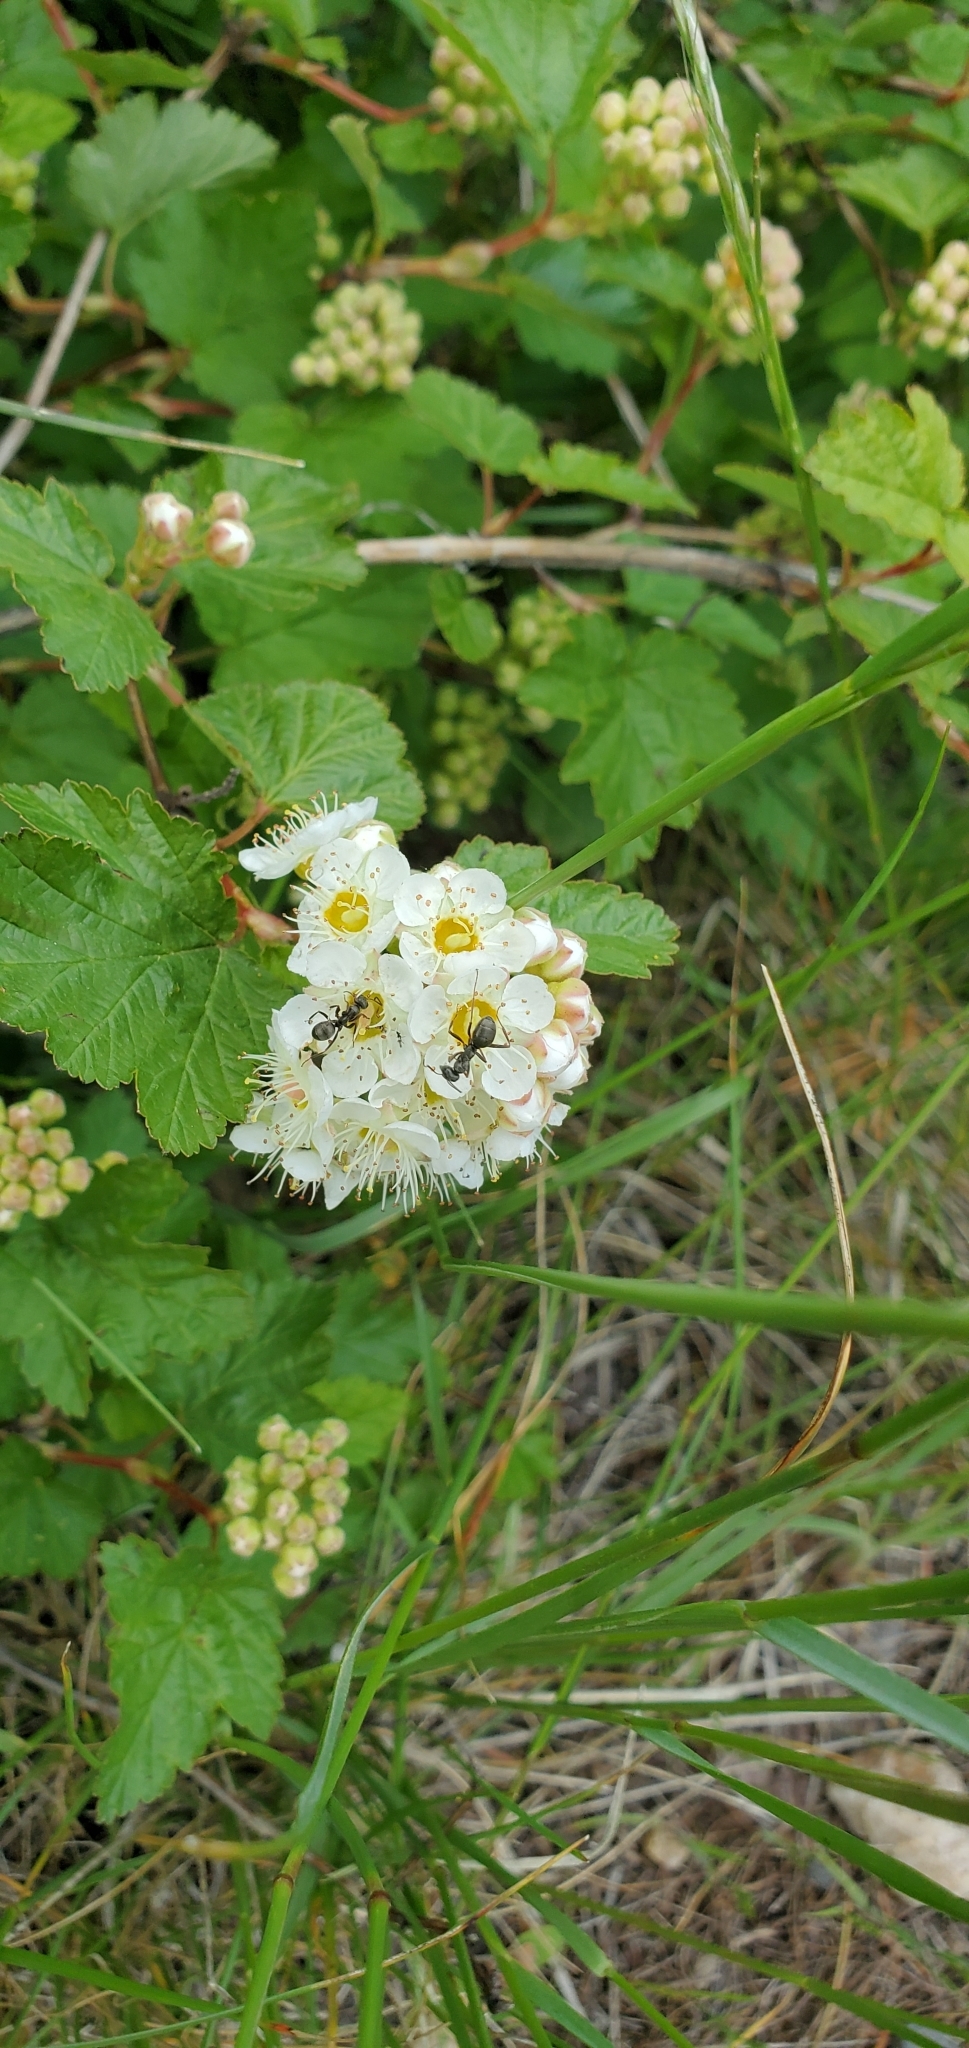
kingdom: Plantae
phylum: Tracheophyta
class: Magnoliopsida
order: Rosales
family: Rosaceae
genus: Physocarpus
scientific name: Physocarpus malvaceus
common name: Mallow ninebark
